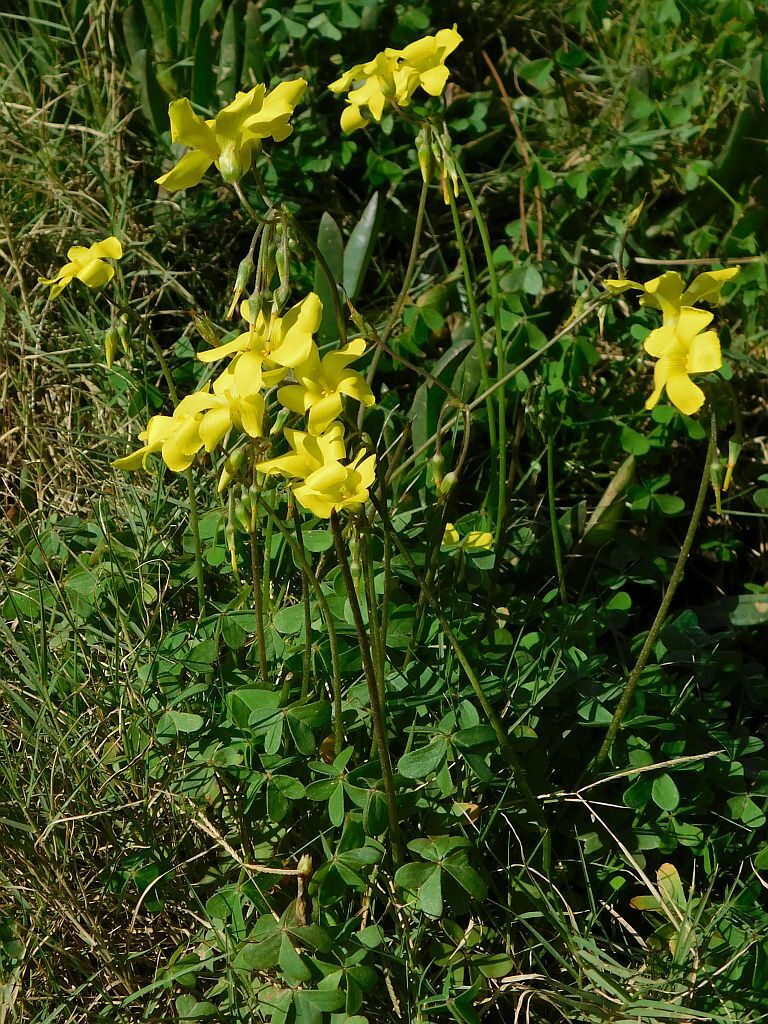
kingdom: Plantae
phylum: Tracheophyta
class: Magnoliopsida
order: Oxalidales
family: Oxalidaceae
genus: Oxalis
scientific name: Oxalis pes-caprae
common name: Bermuda-buttercup
